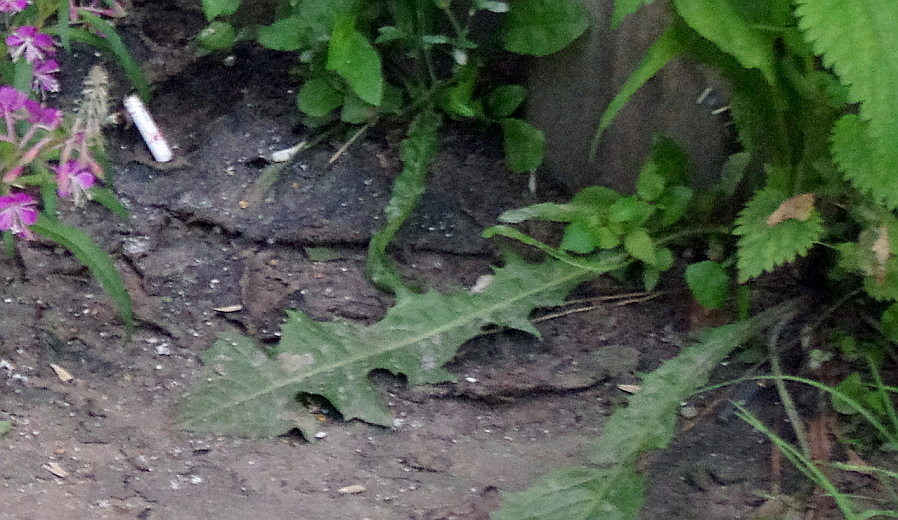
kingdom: Plantae
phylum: Tracheophyta
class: Magnoliopsida
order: Asterales
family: Asteraceae
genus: Taraxacum
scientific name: Taraxacum officinale
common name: Common dandelion
